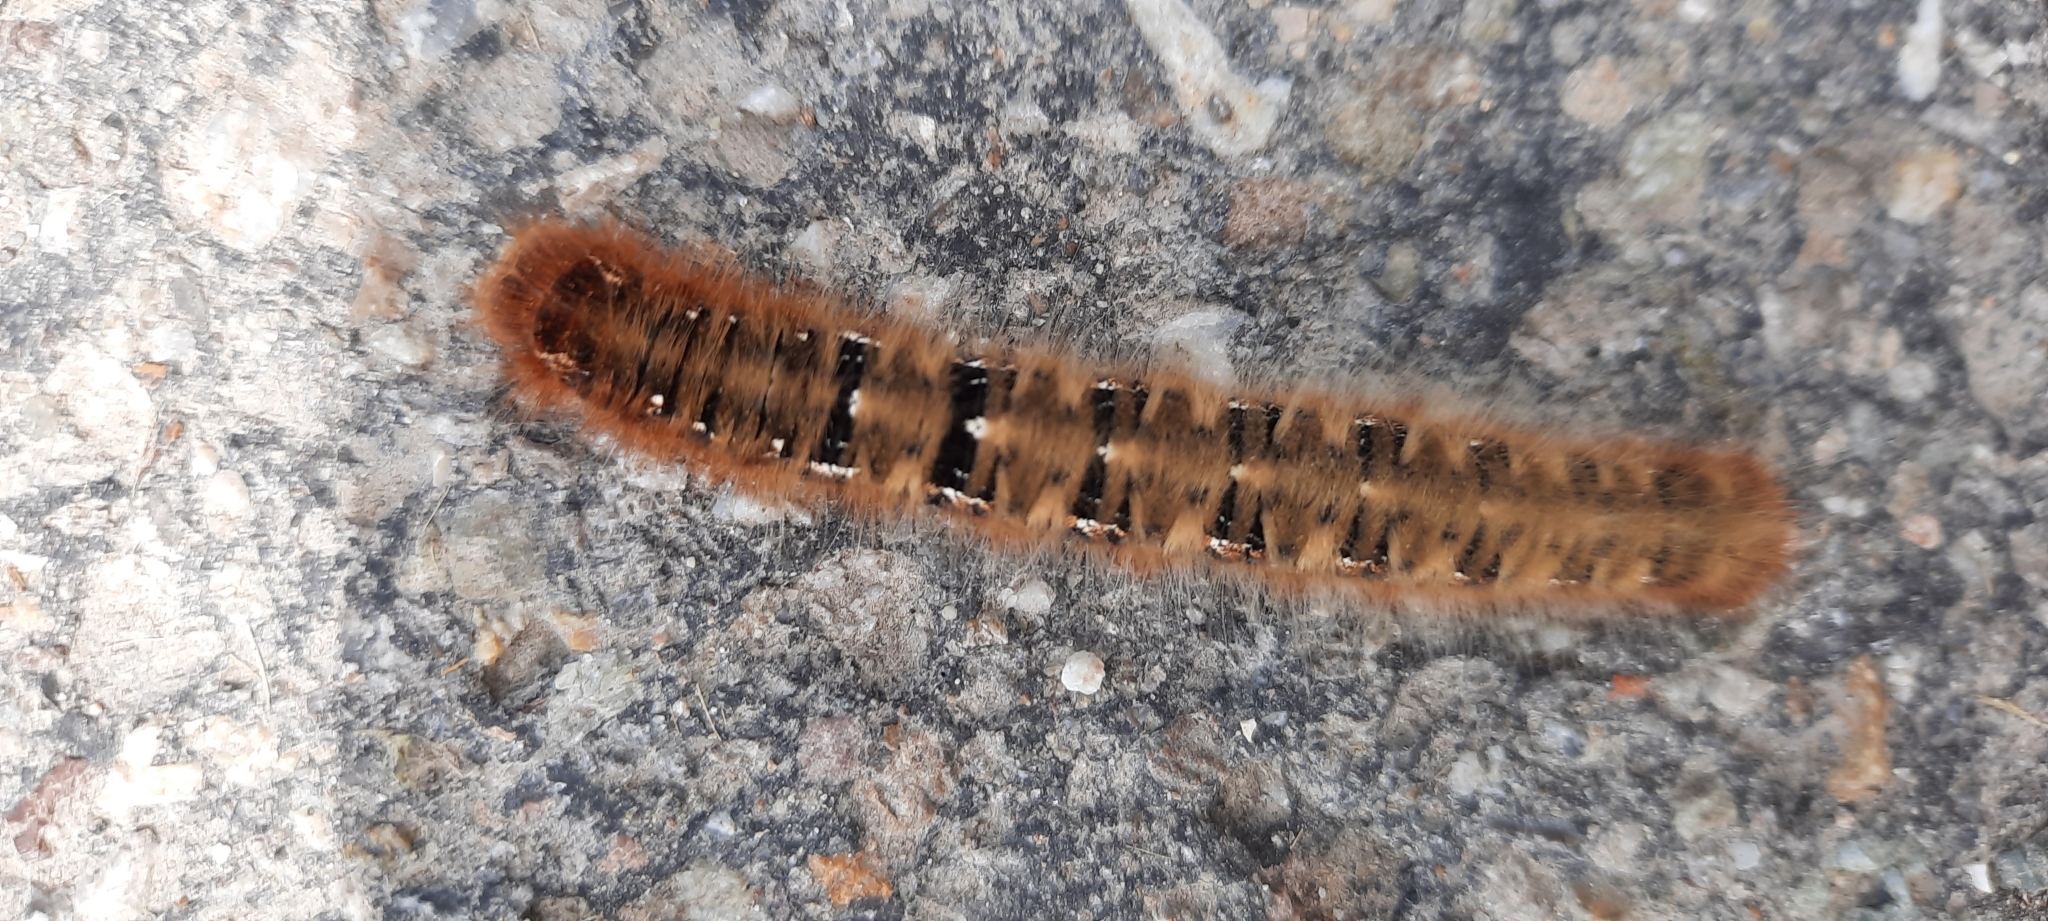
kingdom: Animalia
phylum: Arthropoda
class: Insecta
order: Lepidoptera
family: Lasiocampidae
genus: Lasiocampa
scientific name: Lasiocampa quercus
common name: Oak eggar
